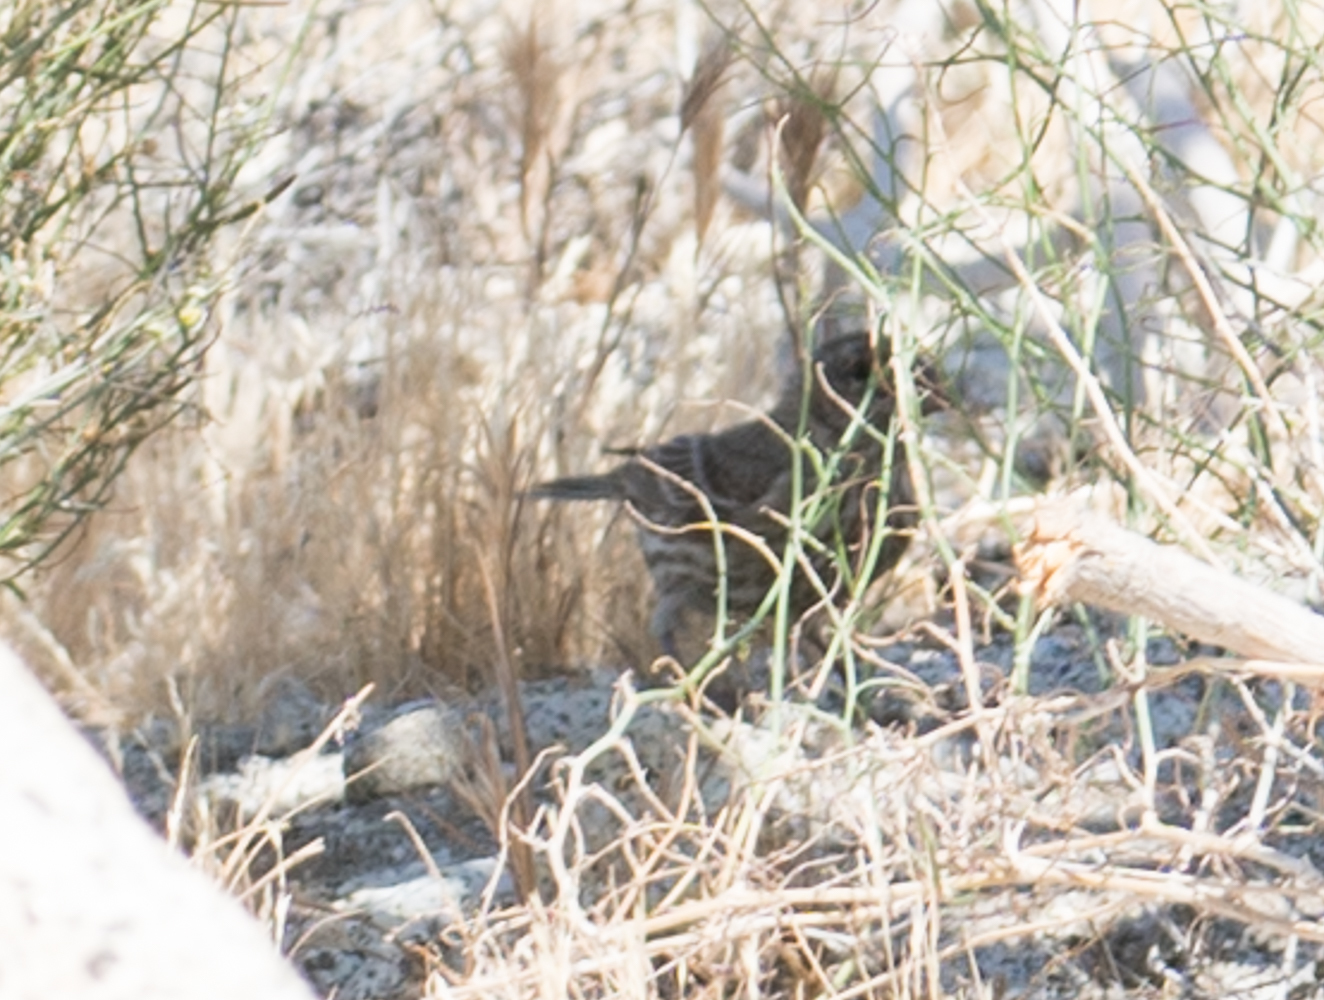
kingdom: Animalia
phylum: Chordata
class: Aves
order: Passeriformes
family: Fringillidae
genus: Haemorhous
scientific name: Haemorhous mexicanus
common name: House finch
